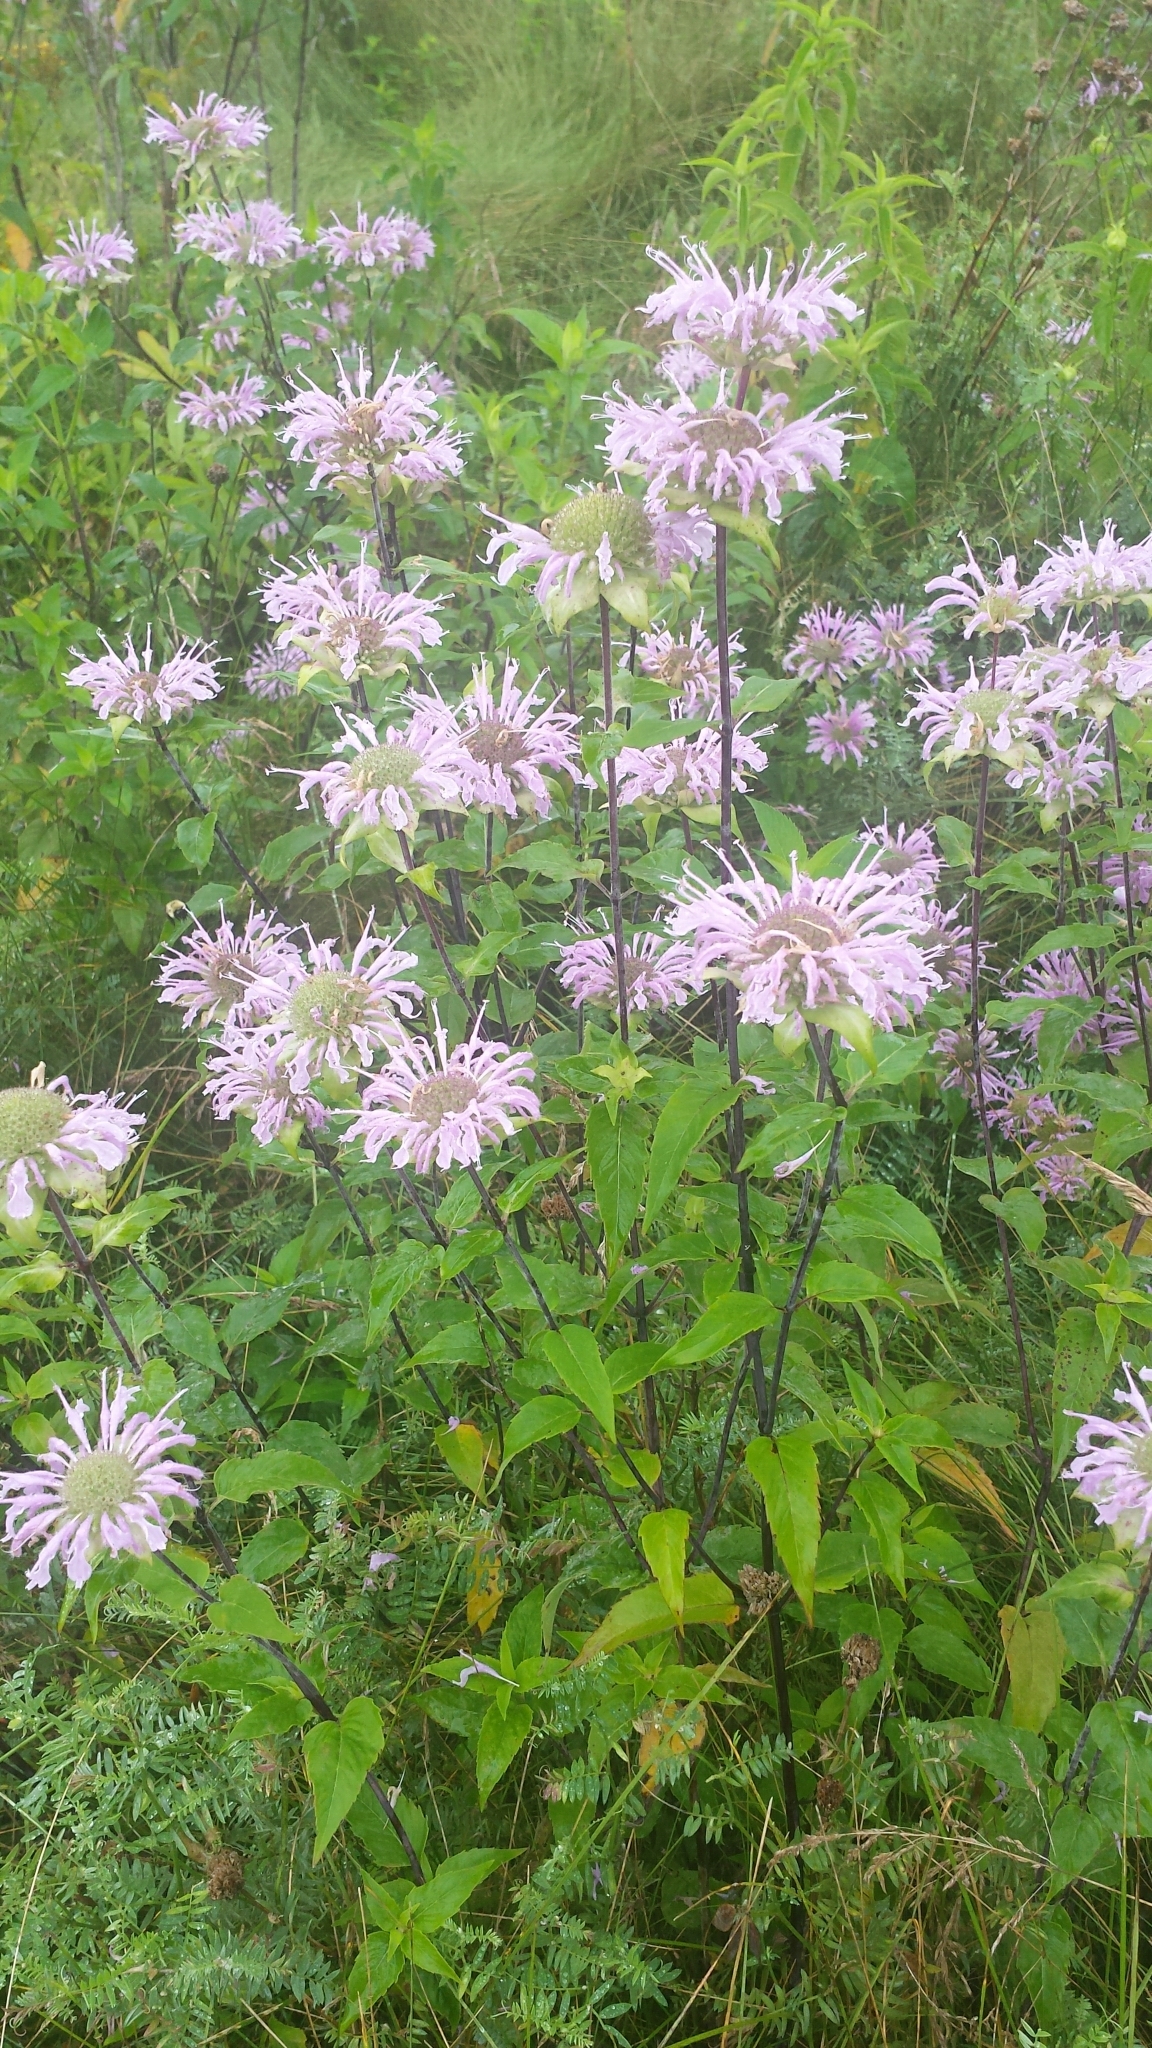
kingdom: Plantae
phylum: Tracheophyta
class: Magnoliopsida
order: Lamiales
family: Lamiaceae
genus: Monarda
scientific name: Monarda fistulosa
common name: Purple beebalm
